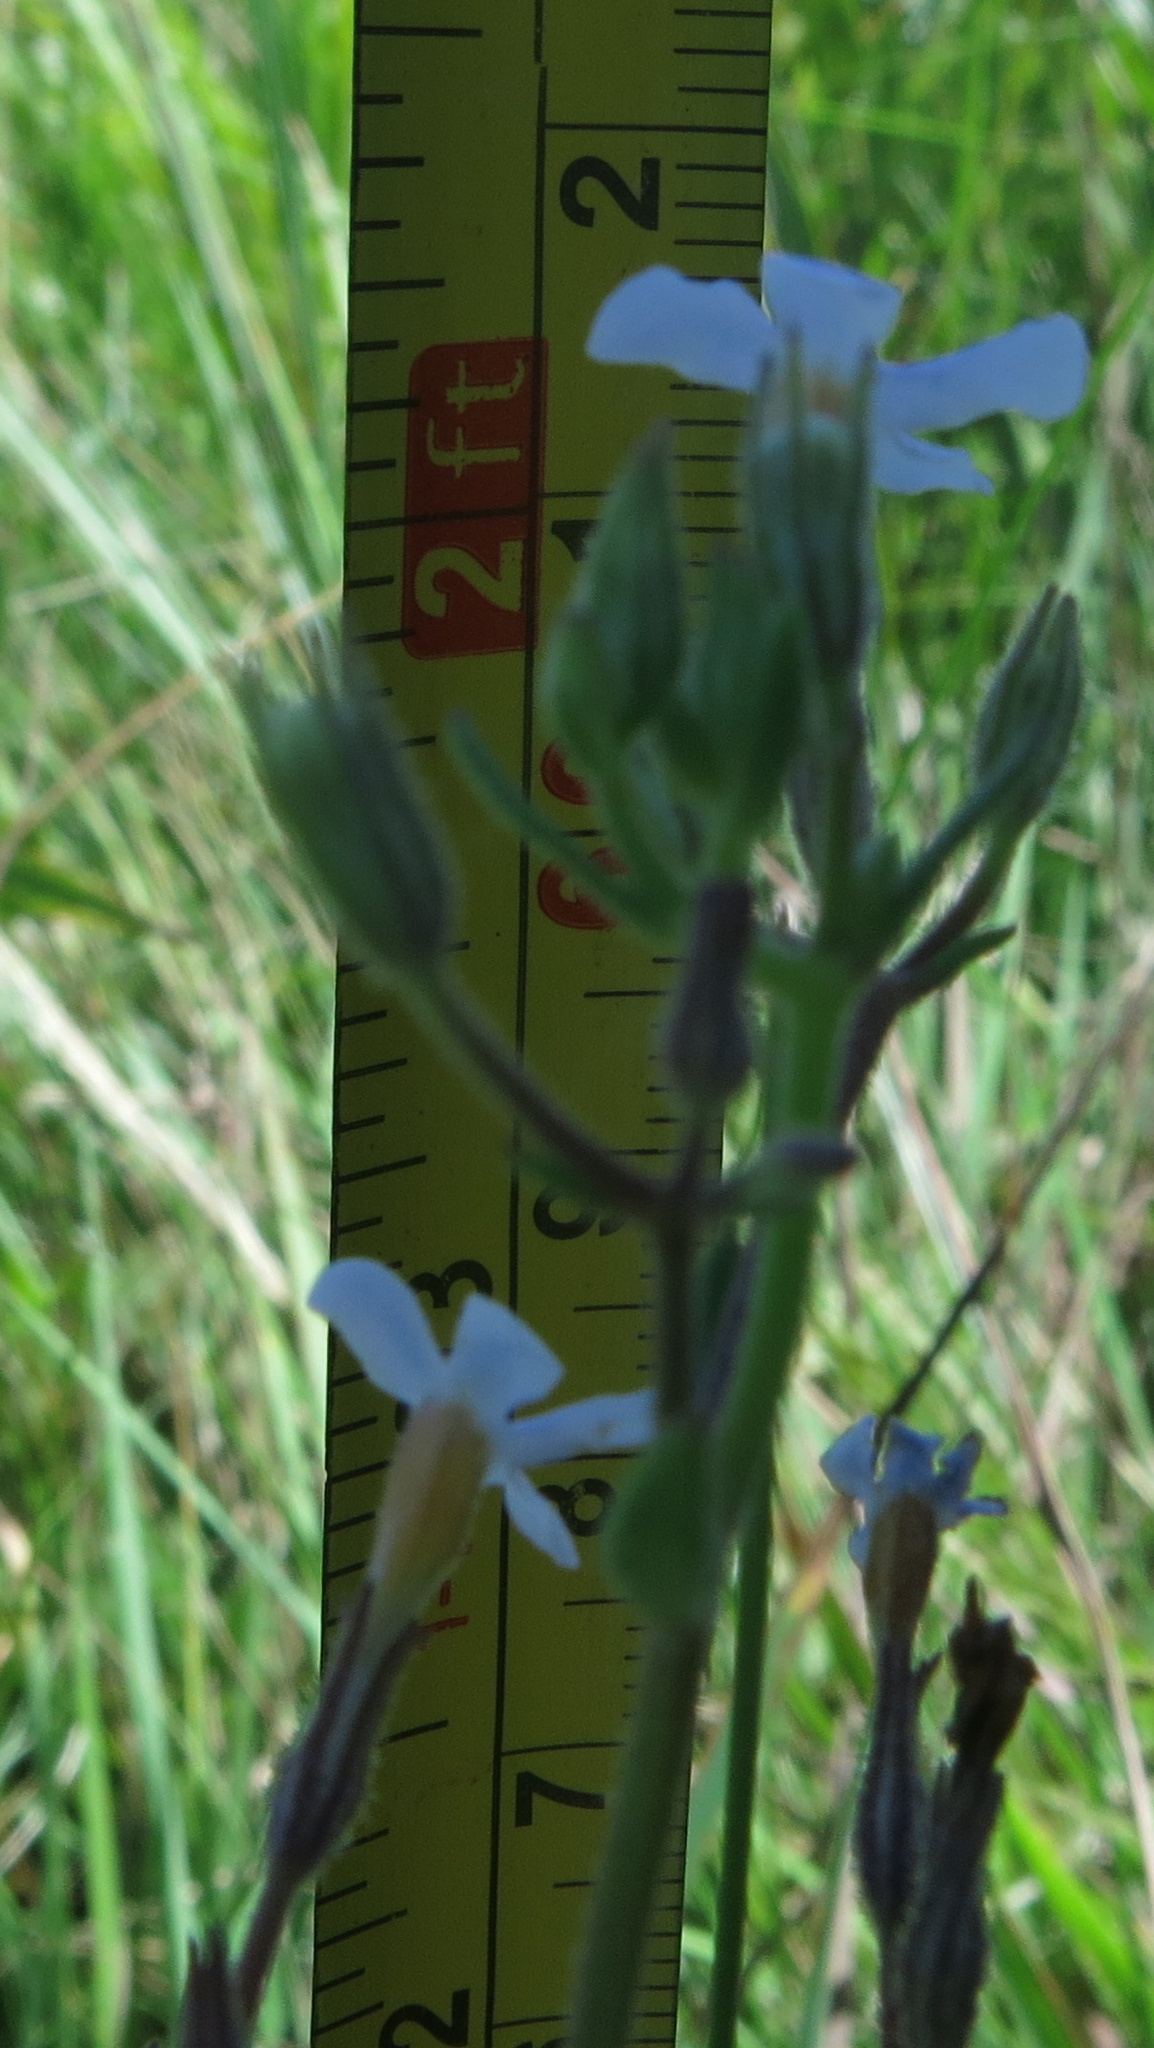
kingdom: Plantae
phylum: Tracheophyta
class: Magnoliopsida
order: Lamiales
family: Scrophulariaceae
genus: Chaenostoma
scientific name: Chaenostoma floribundum
